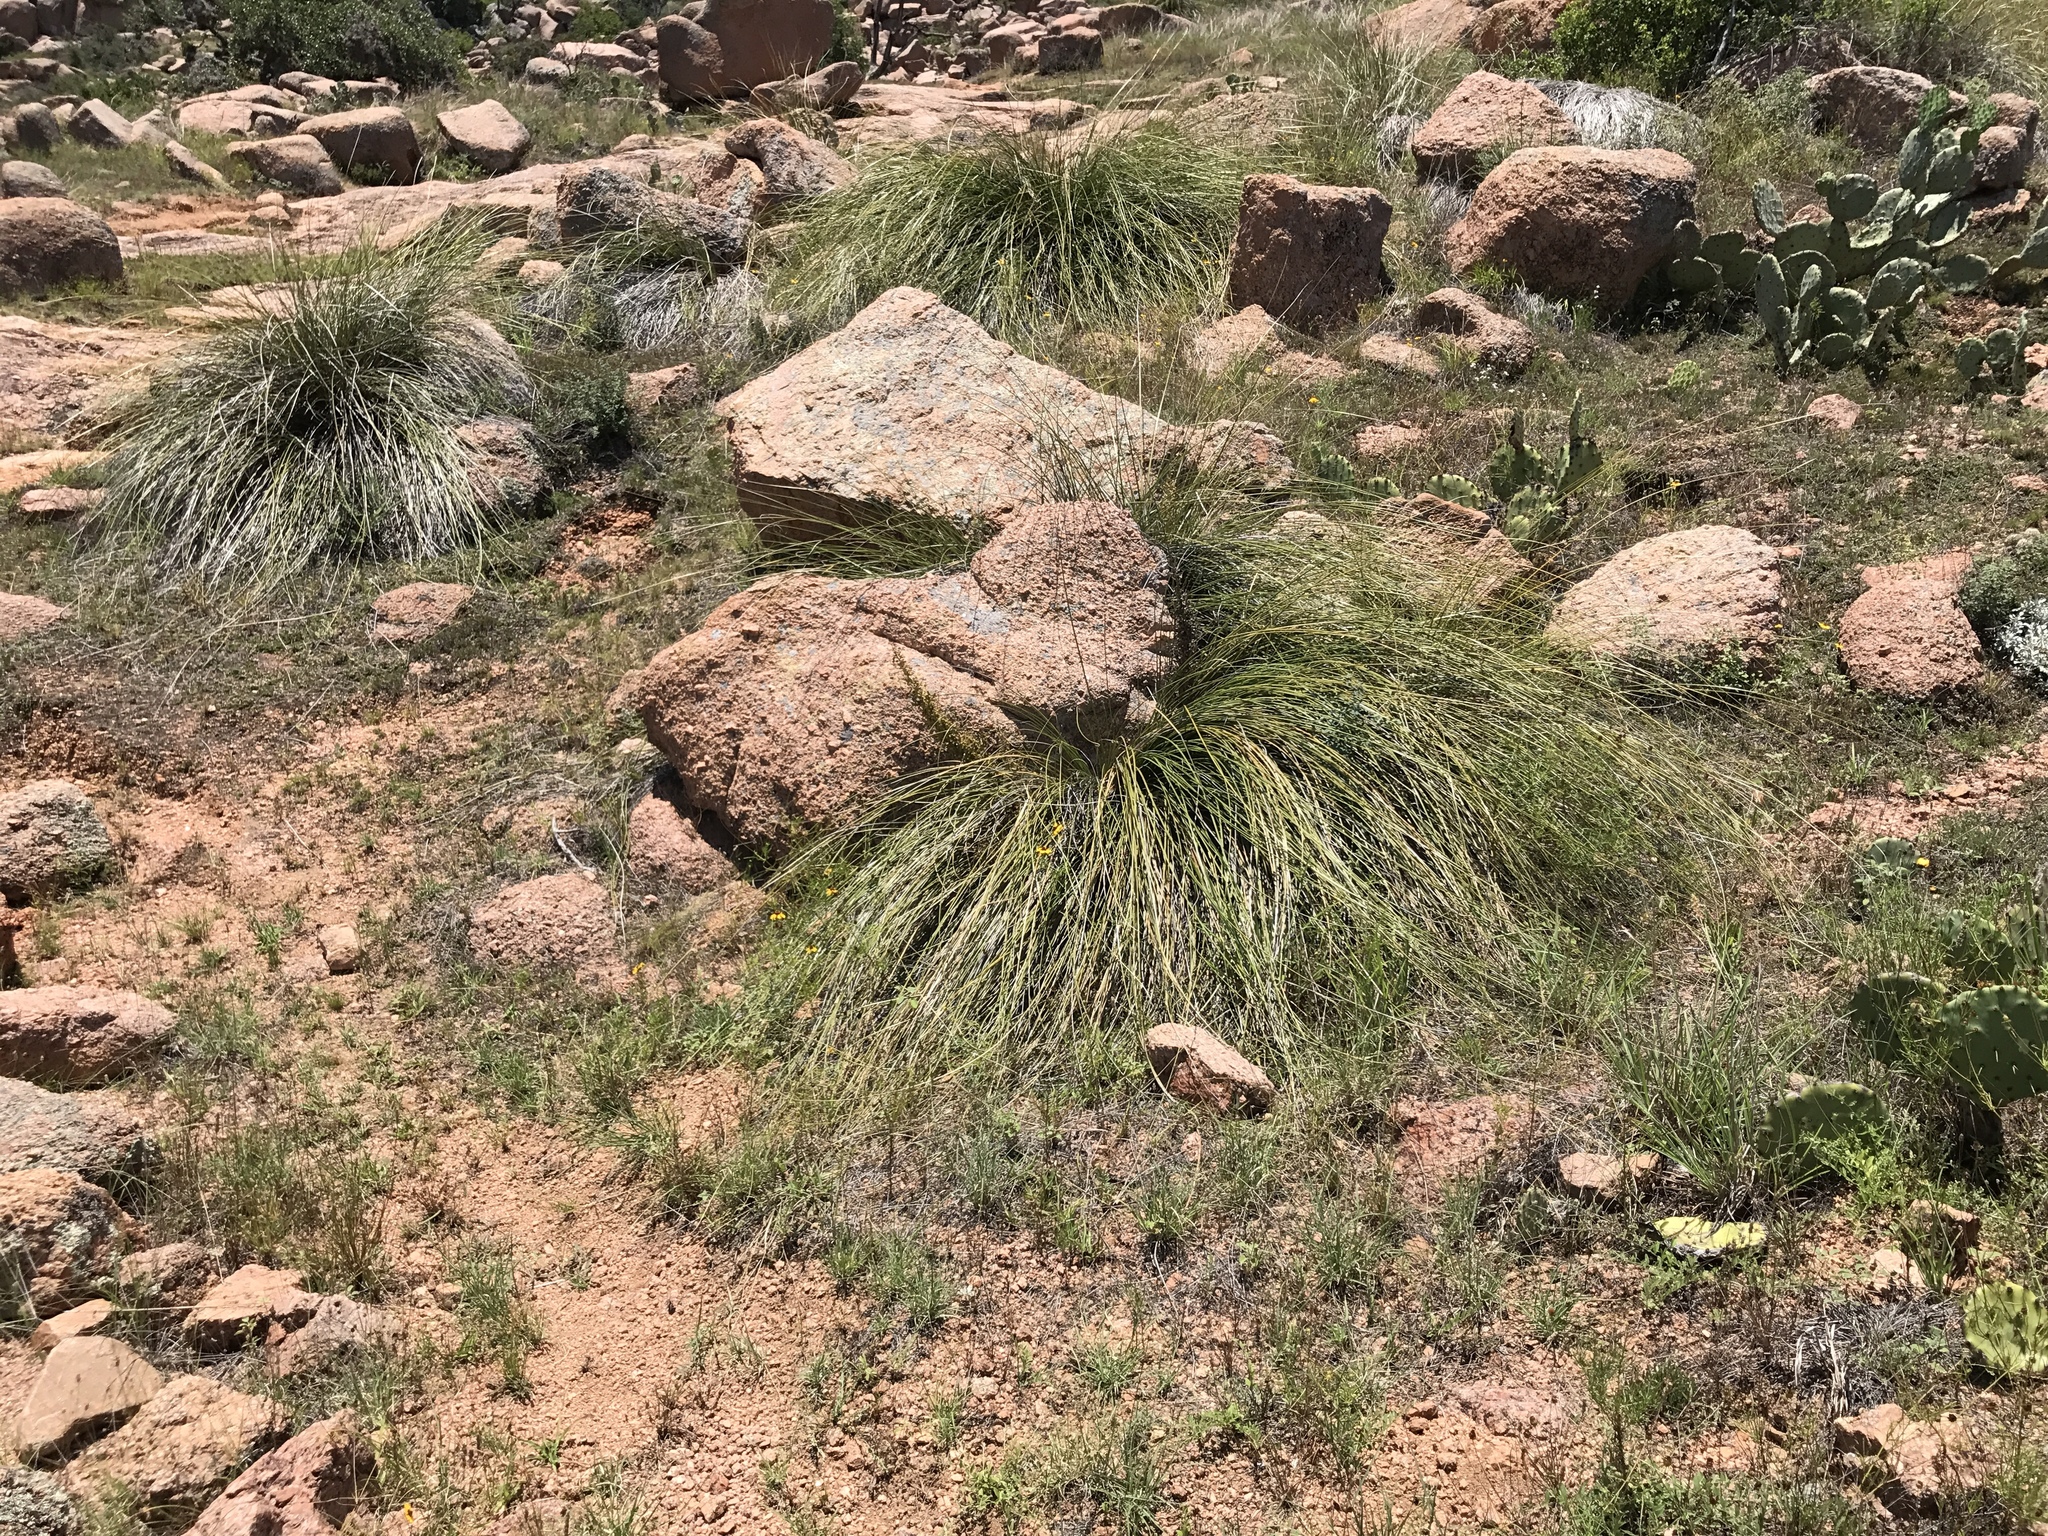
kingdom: Plantae
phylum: Tracheophyta
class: Liliopsida
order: Asparagales
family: Asparagaceae
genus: Nolina
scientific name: Nolina texana
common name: Texas sacahuiste
